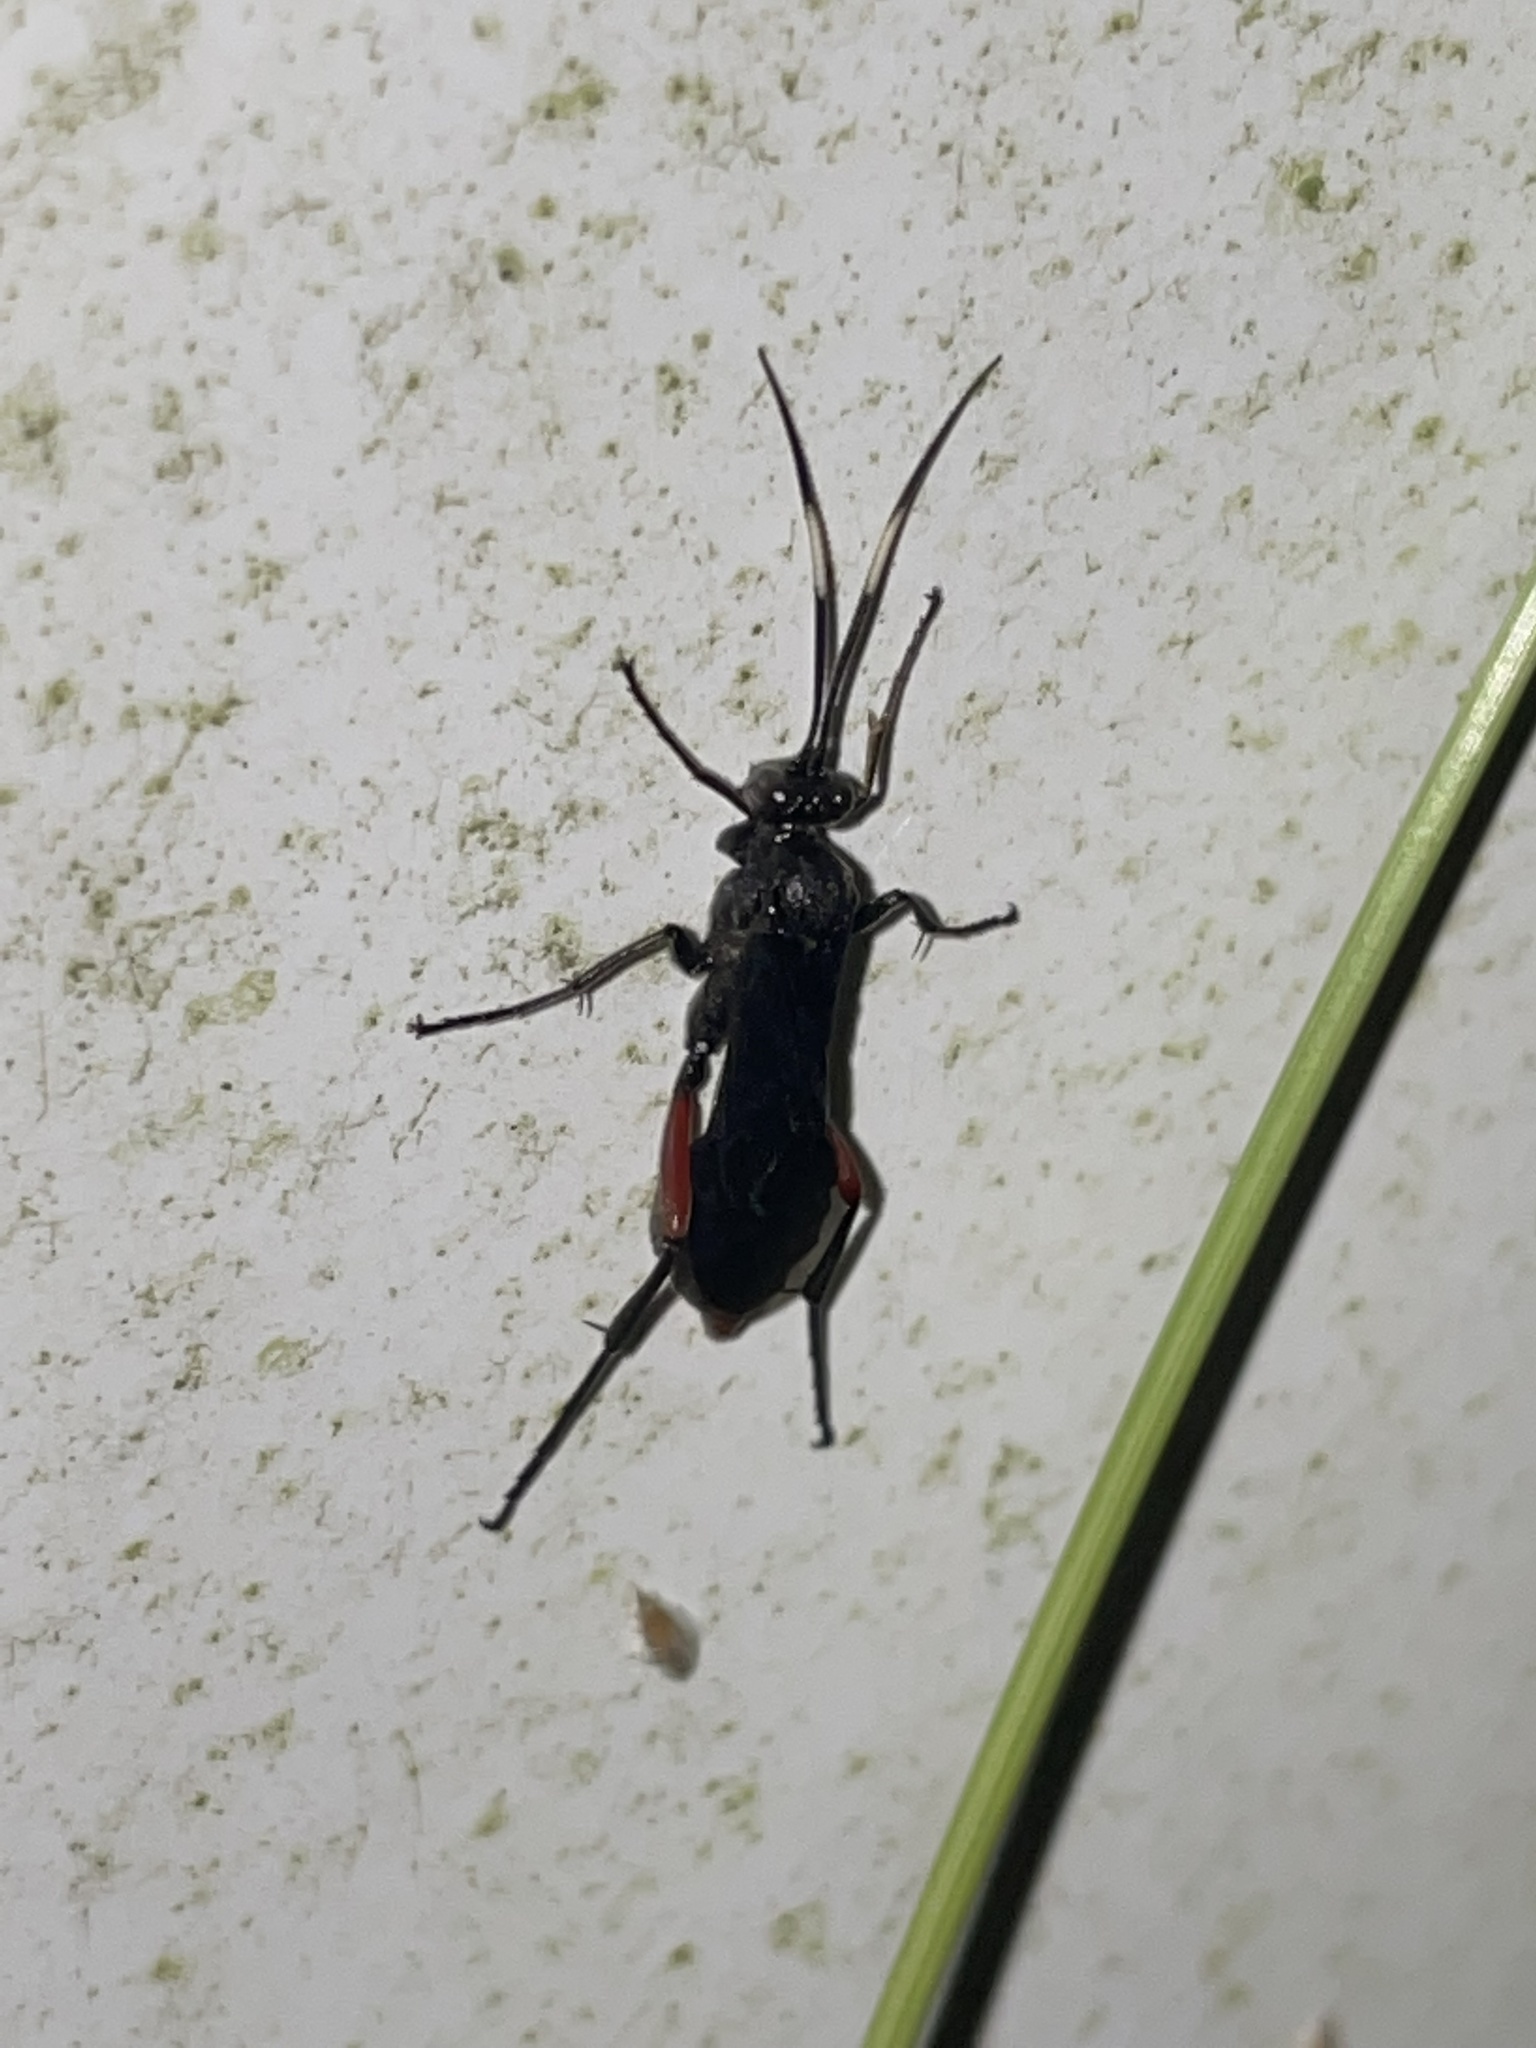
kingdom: Animalia
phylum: Arthropoda
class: Insecta
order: Hymenoptera
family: Ichneumonidae
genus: Limonethe
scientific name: Limonethe maurator
